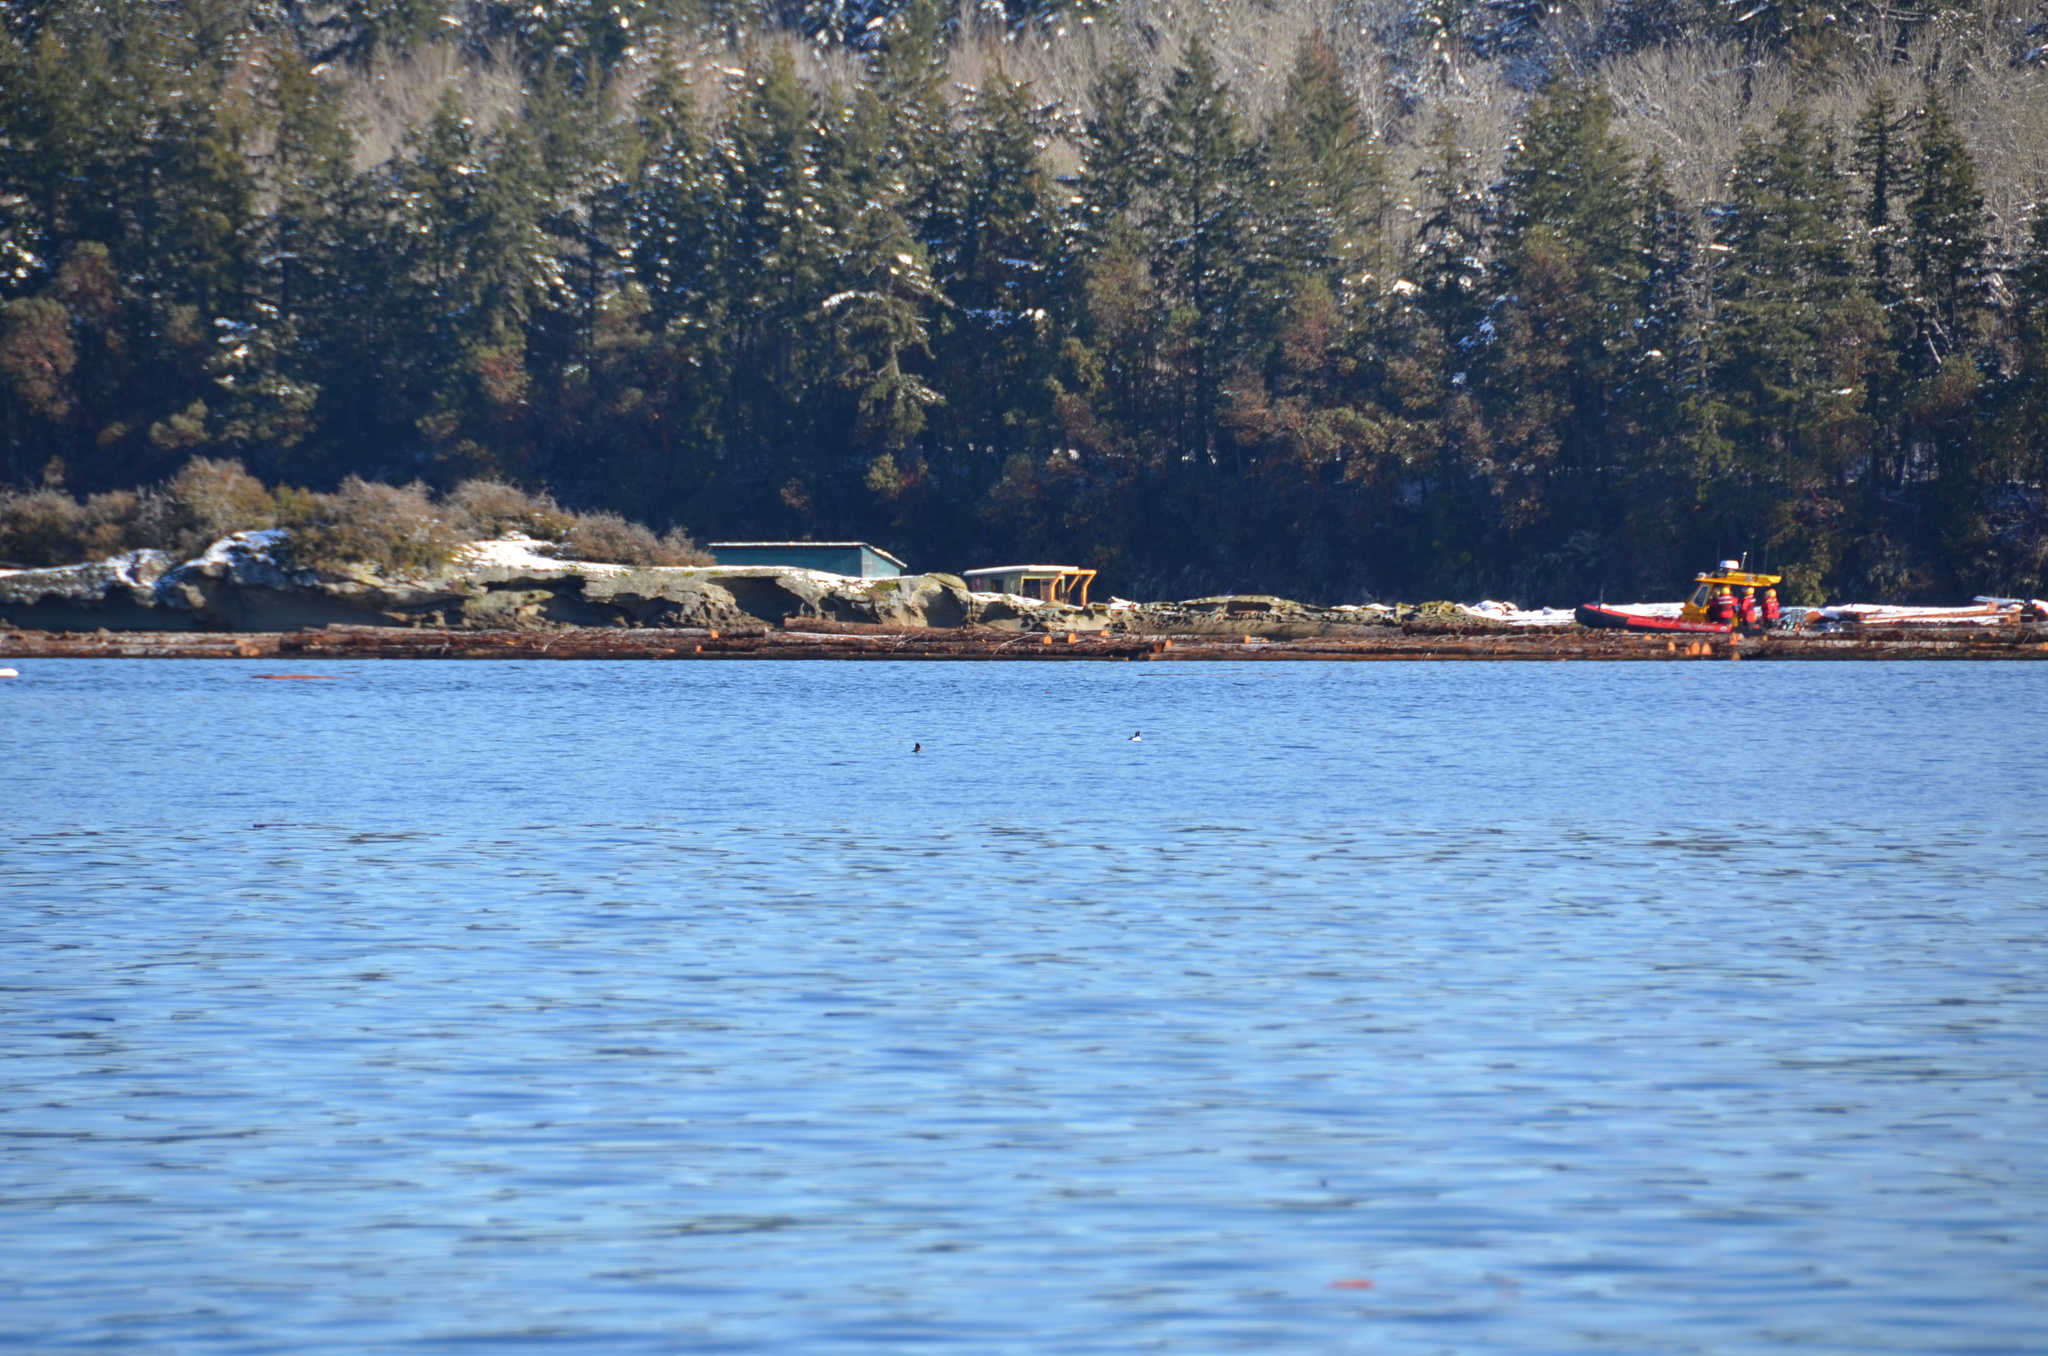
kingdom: Animalia
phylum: Chordata
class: Aves
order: Anseriformes
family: Anatidae
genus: Mergus
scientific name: Mergus merganser
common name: Common merganser
